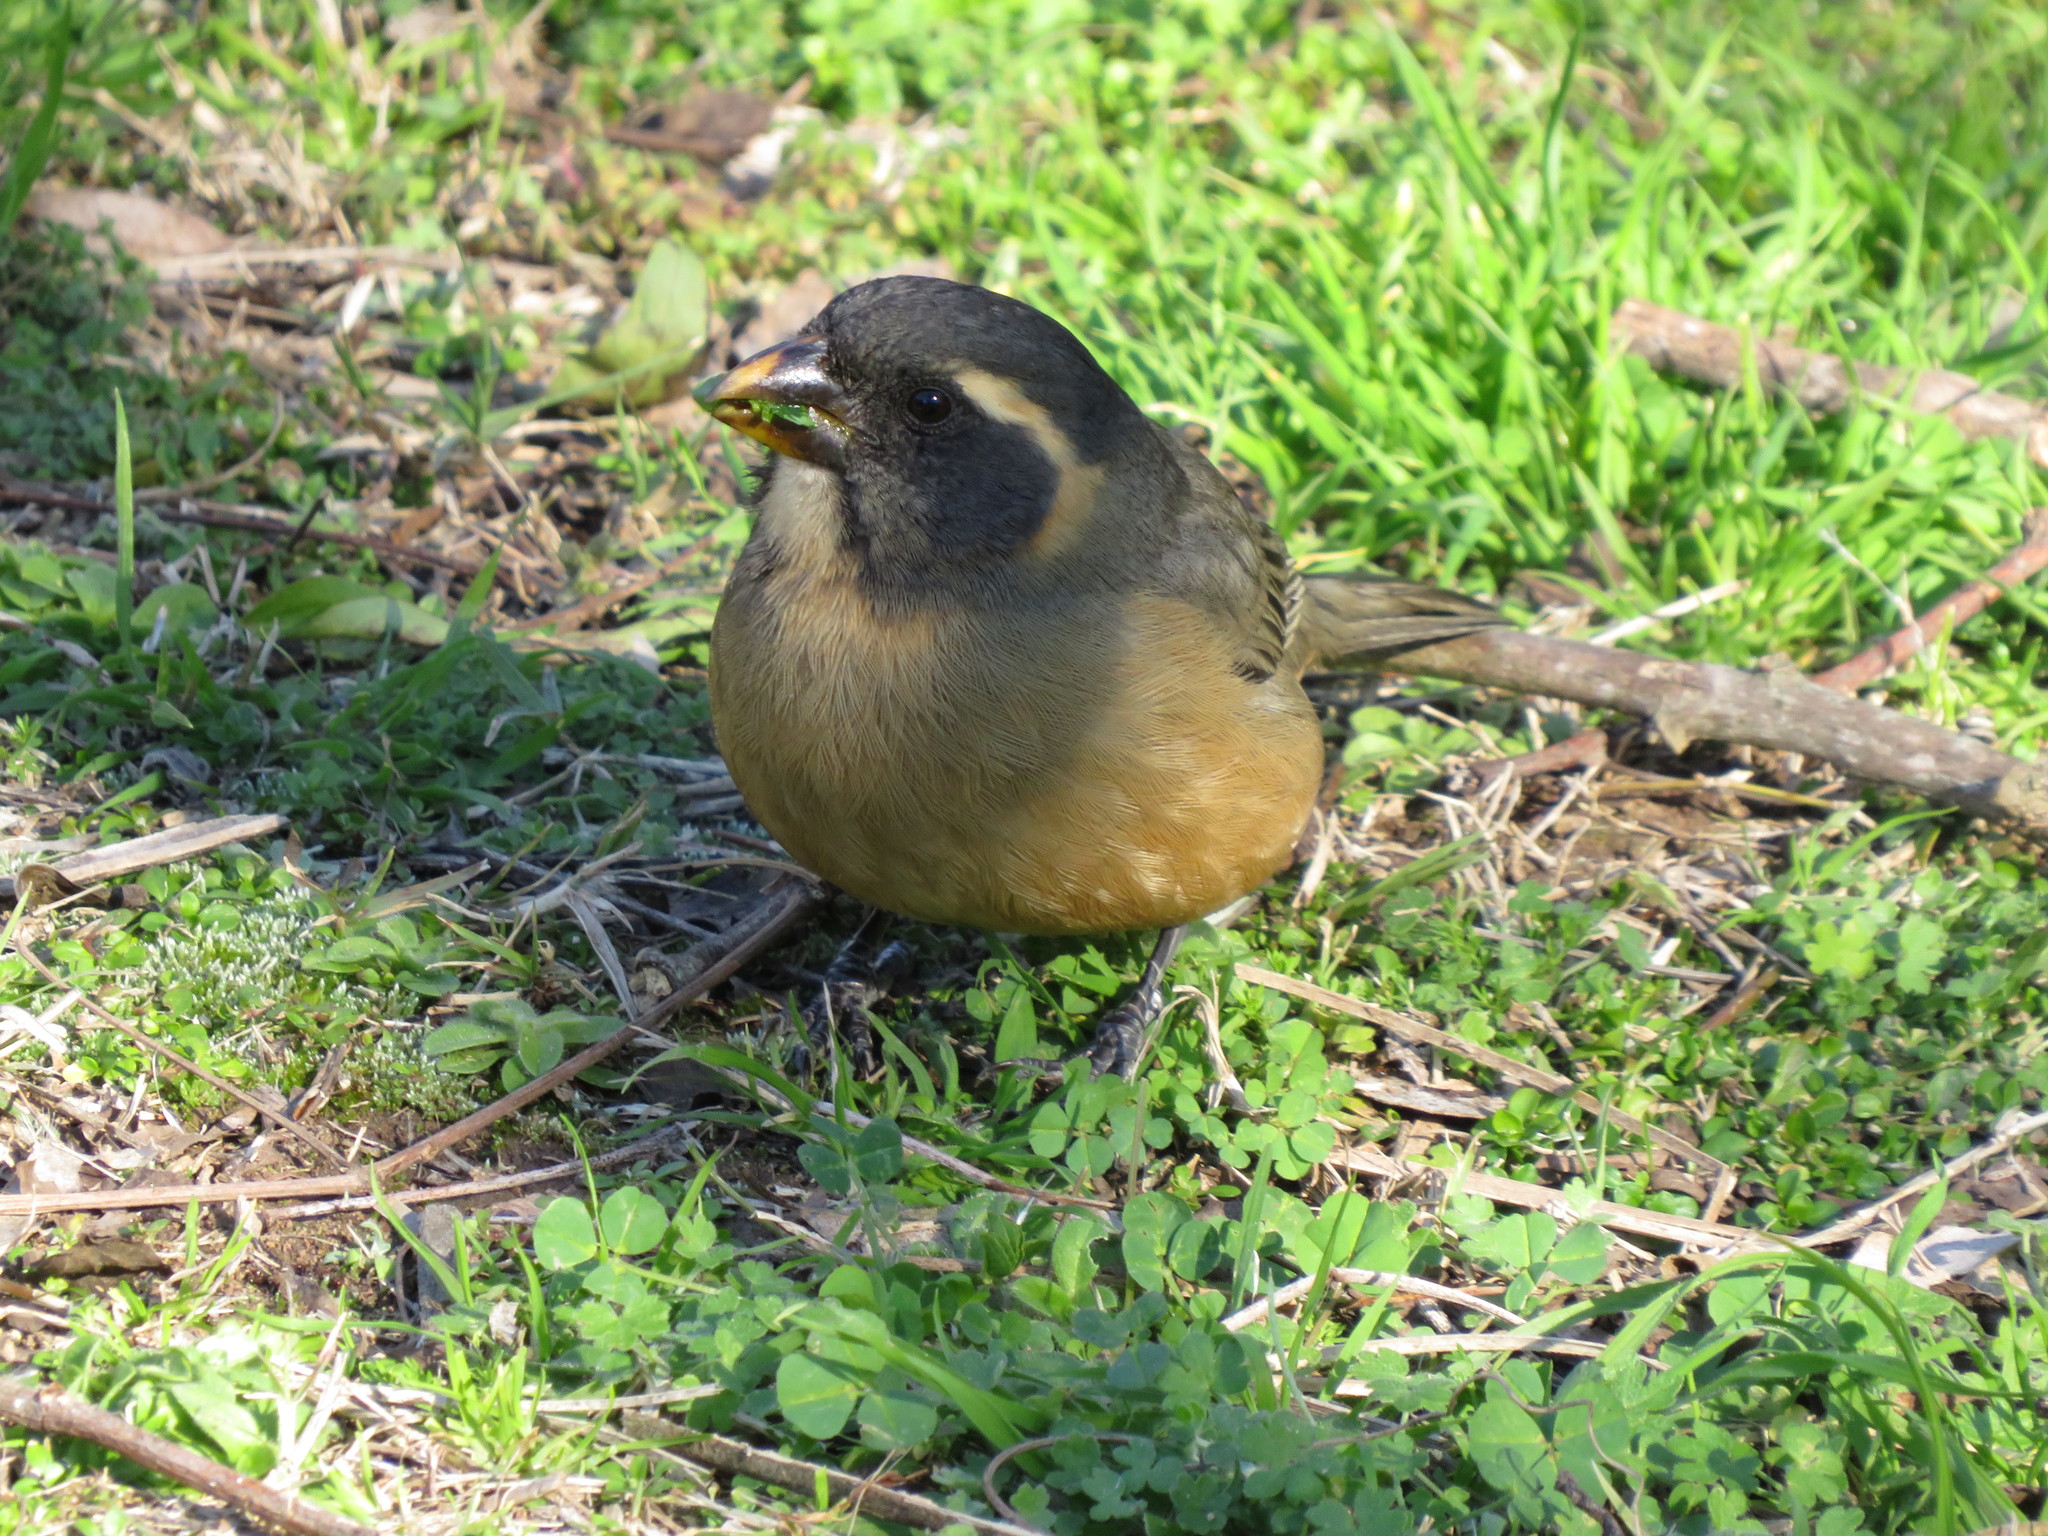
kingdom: Animalia
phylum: Chordata
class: Aves
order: Passeriformes
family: Thraupidae
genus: Saltator
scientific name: Saltator aurantiirostris
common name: Golden-billed saltator
